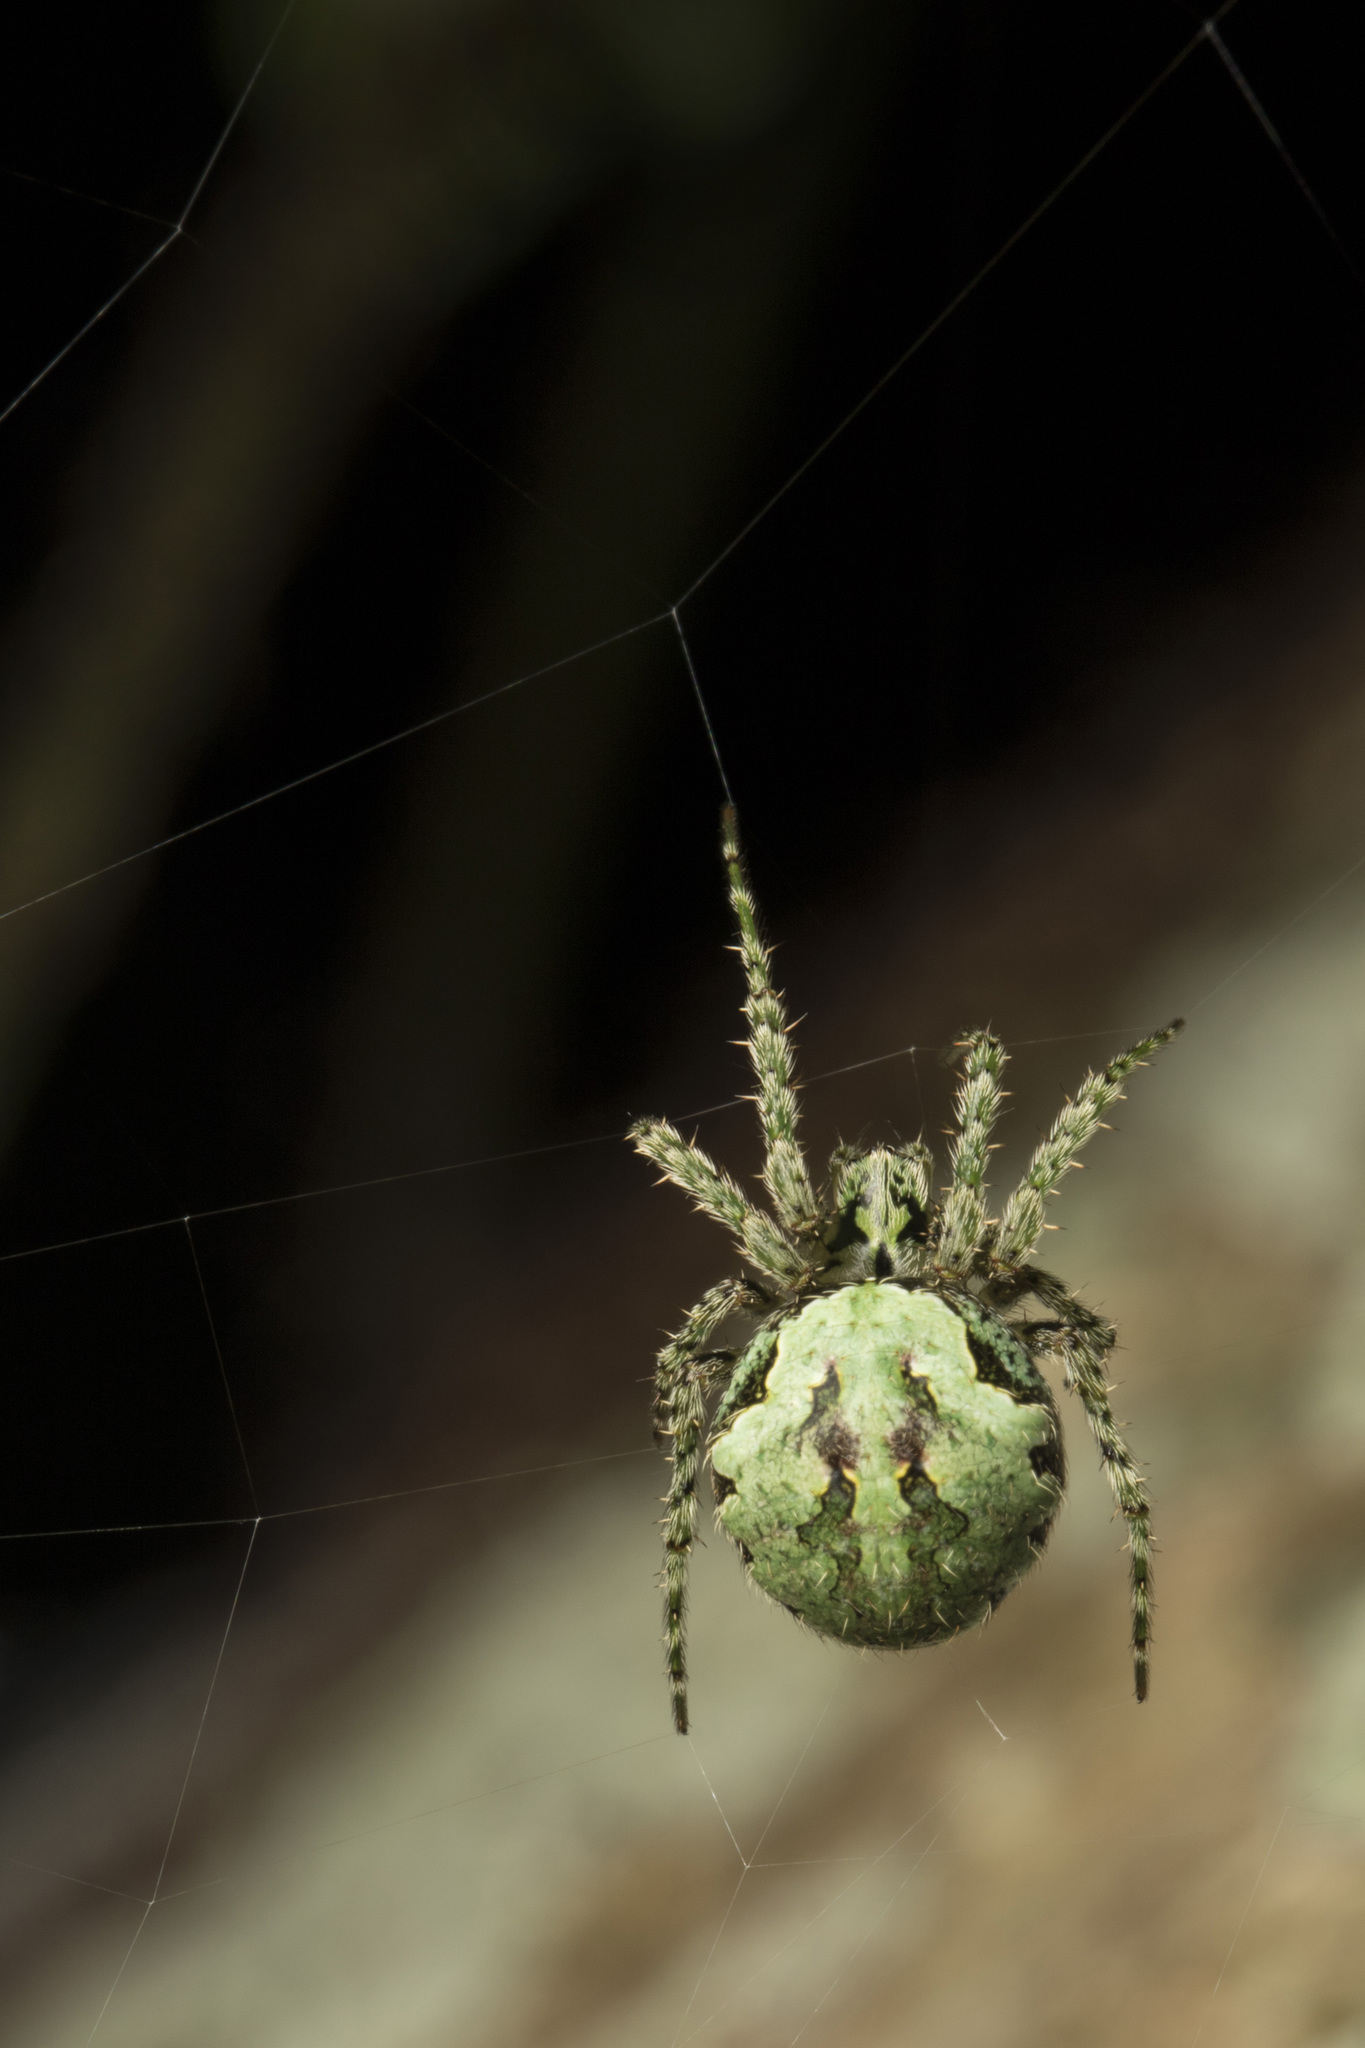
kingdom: Animalia
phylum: Arthropoda
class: Arachnida
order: Araneae
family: Araneidae
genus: Cryptaranea
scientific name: Cryptaranea atrihastula
